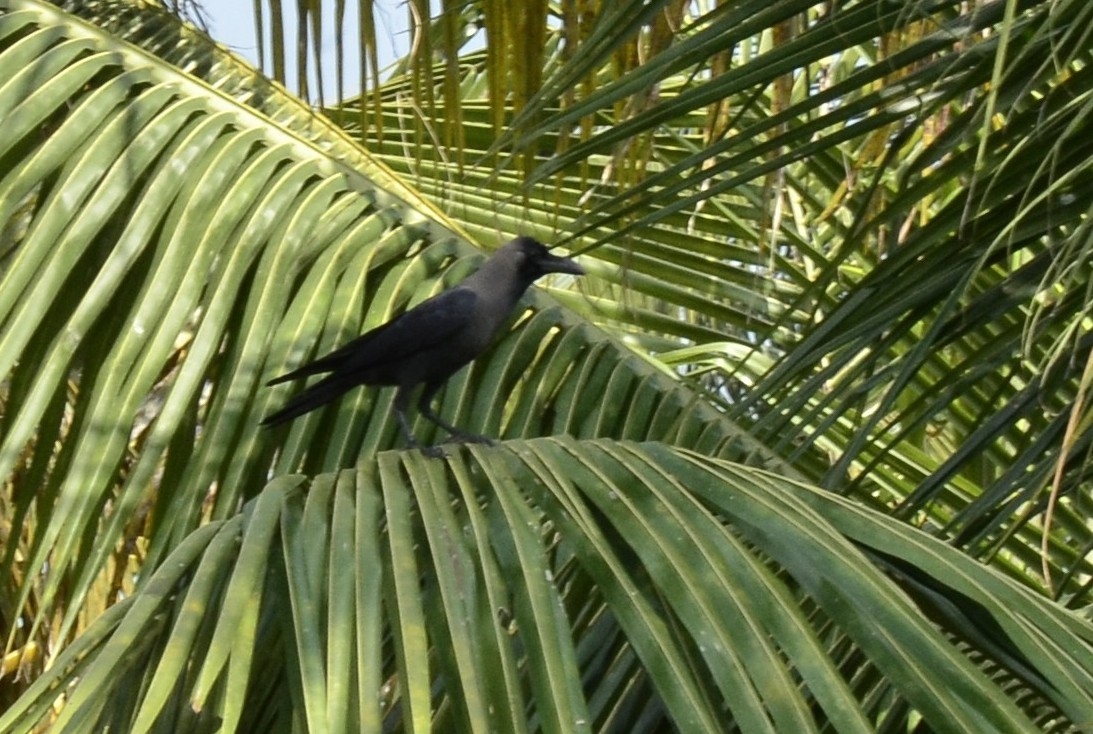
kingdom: Animalia
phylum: Chordata
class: Aves
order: Passeriformes
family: Corvidae
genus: Corvus
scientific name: Corvus splendens
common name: House crow
